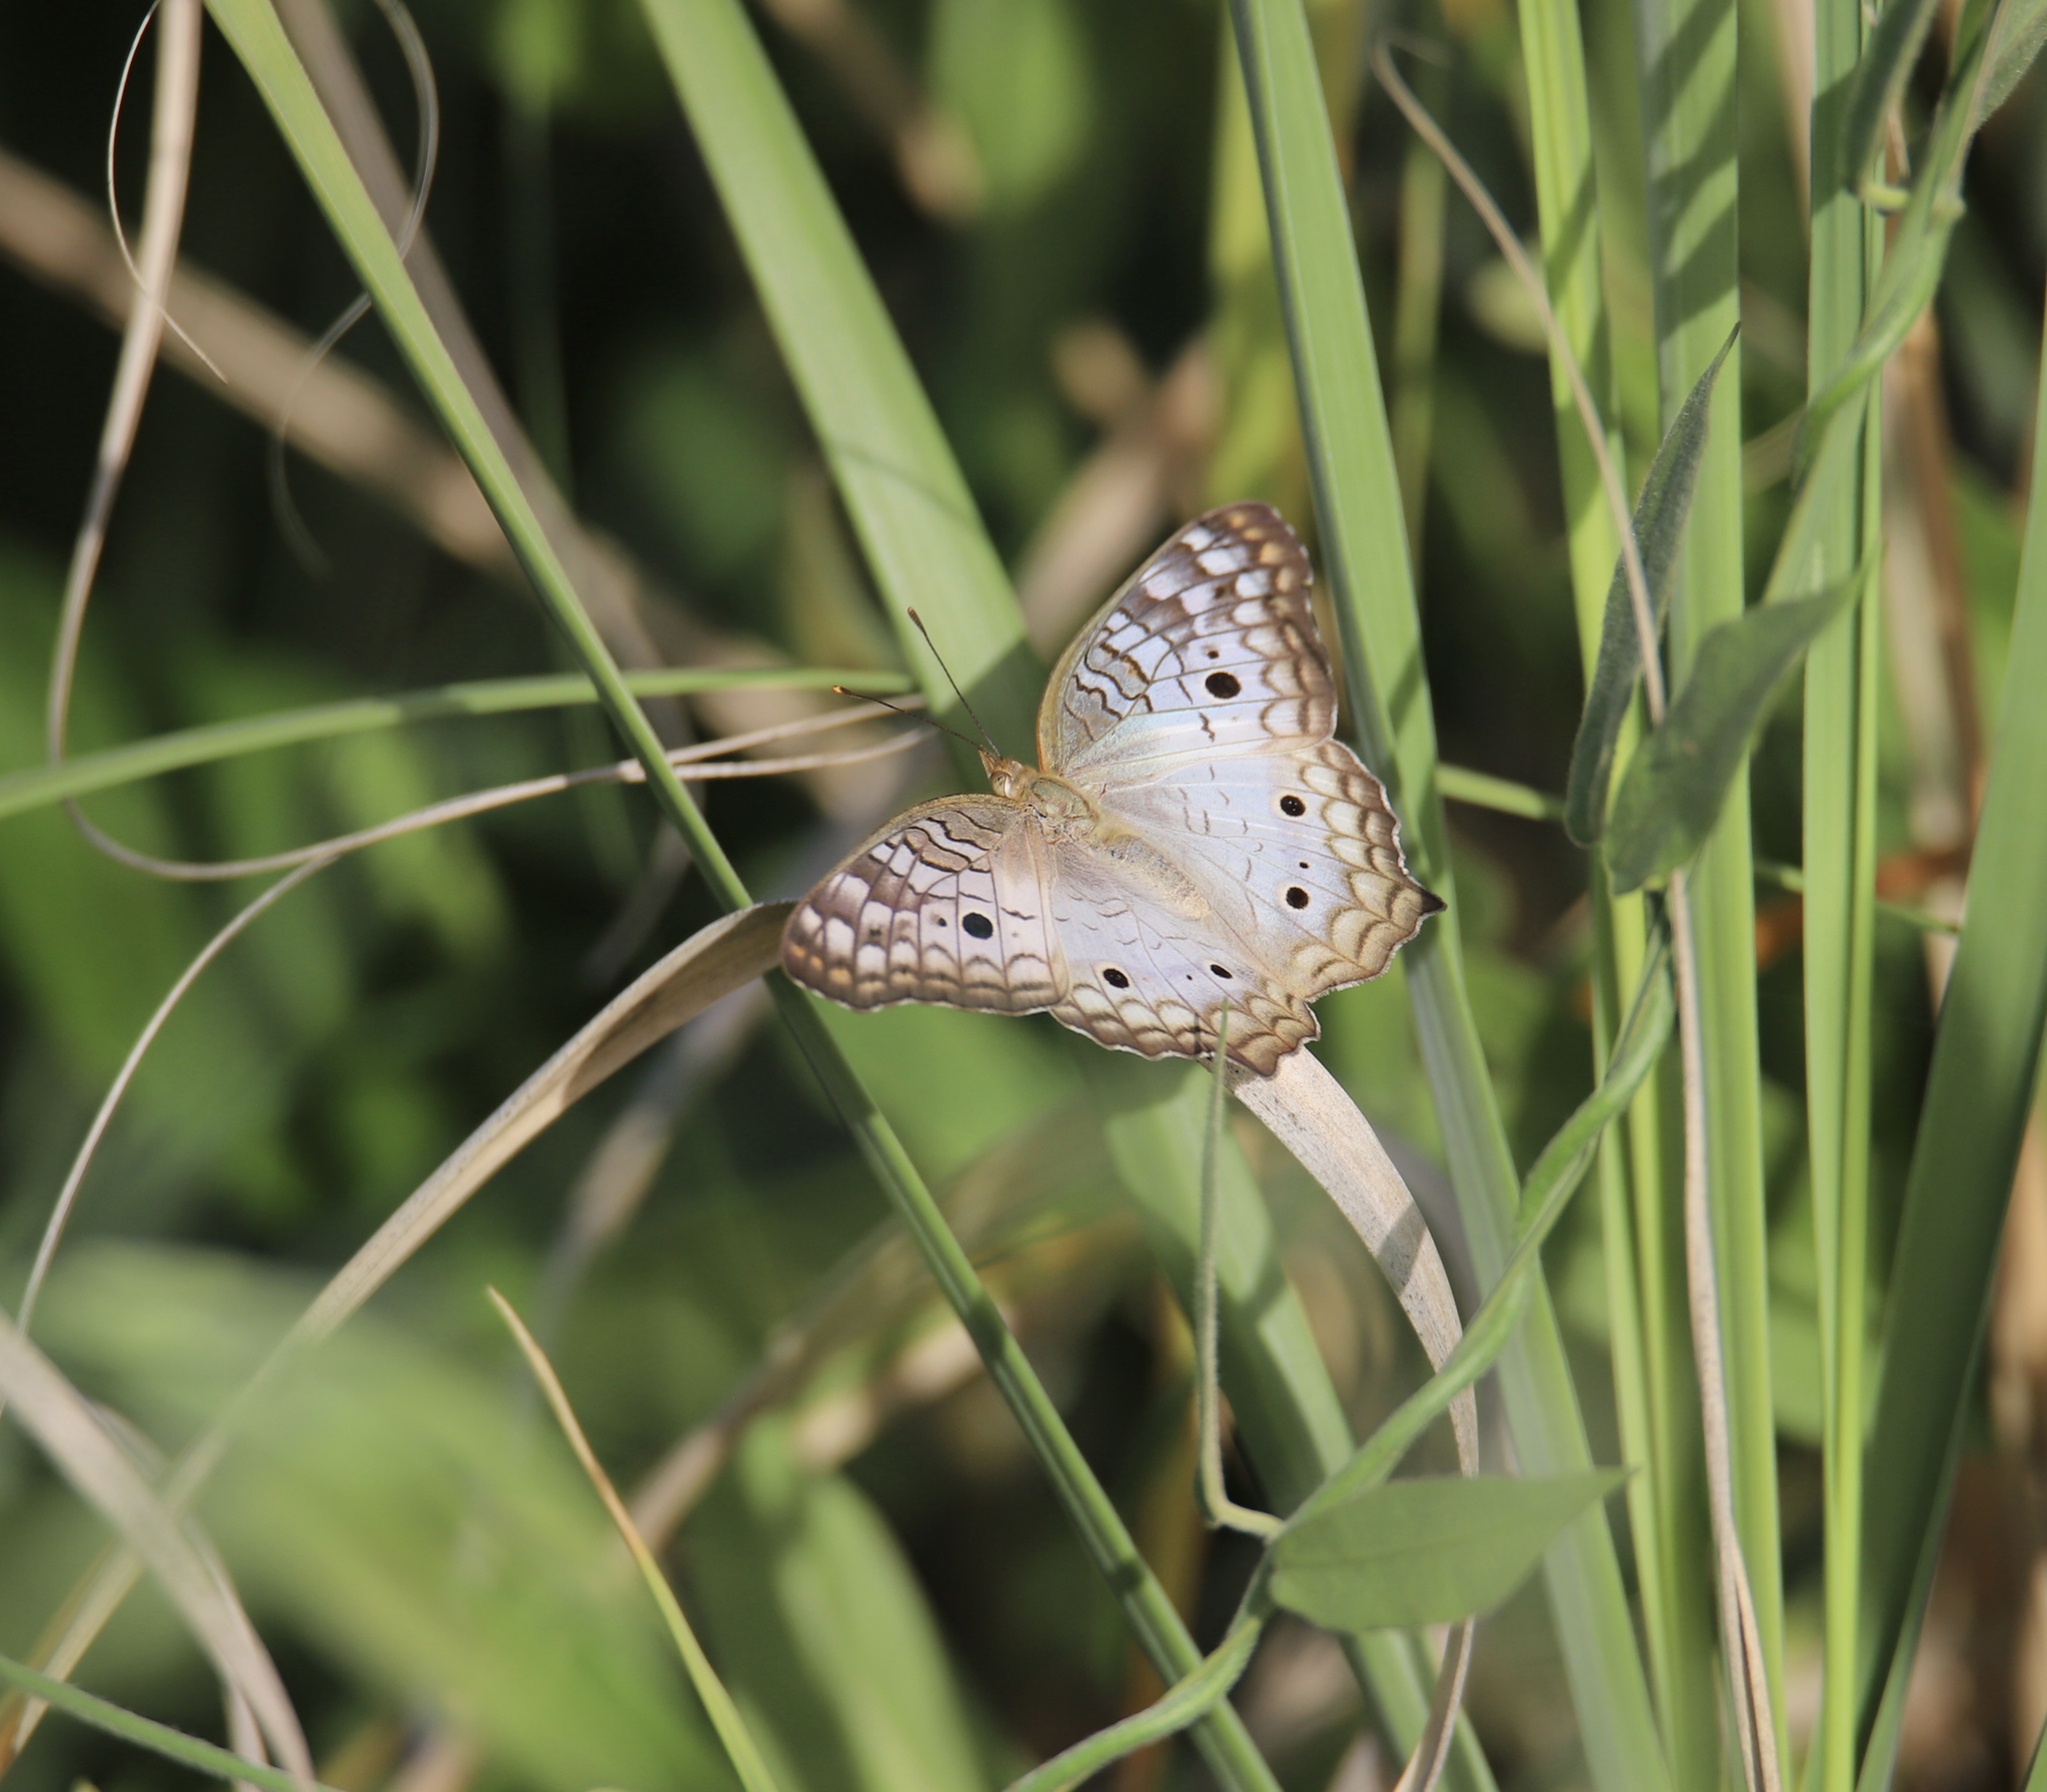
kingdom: Animalia
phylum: Arthropoda
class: Insecta
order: Lepidoptera
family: Nymphalidae
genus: Anartia
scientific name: Anartia jatrophae
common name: White peacock
